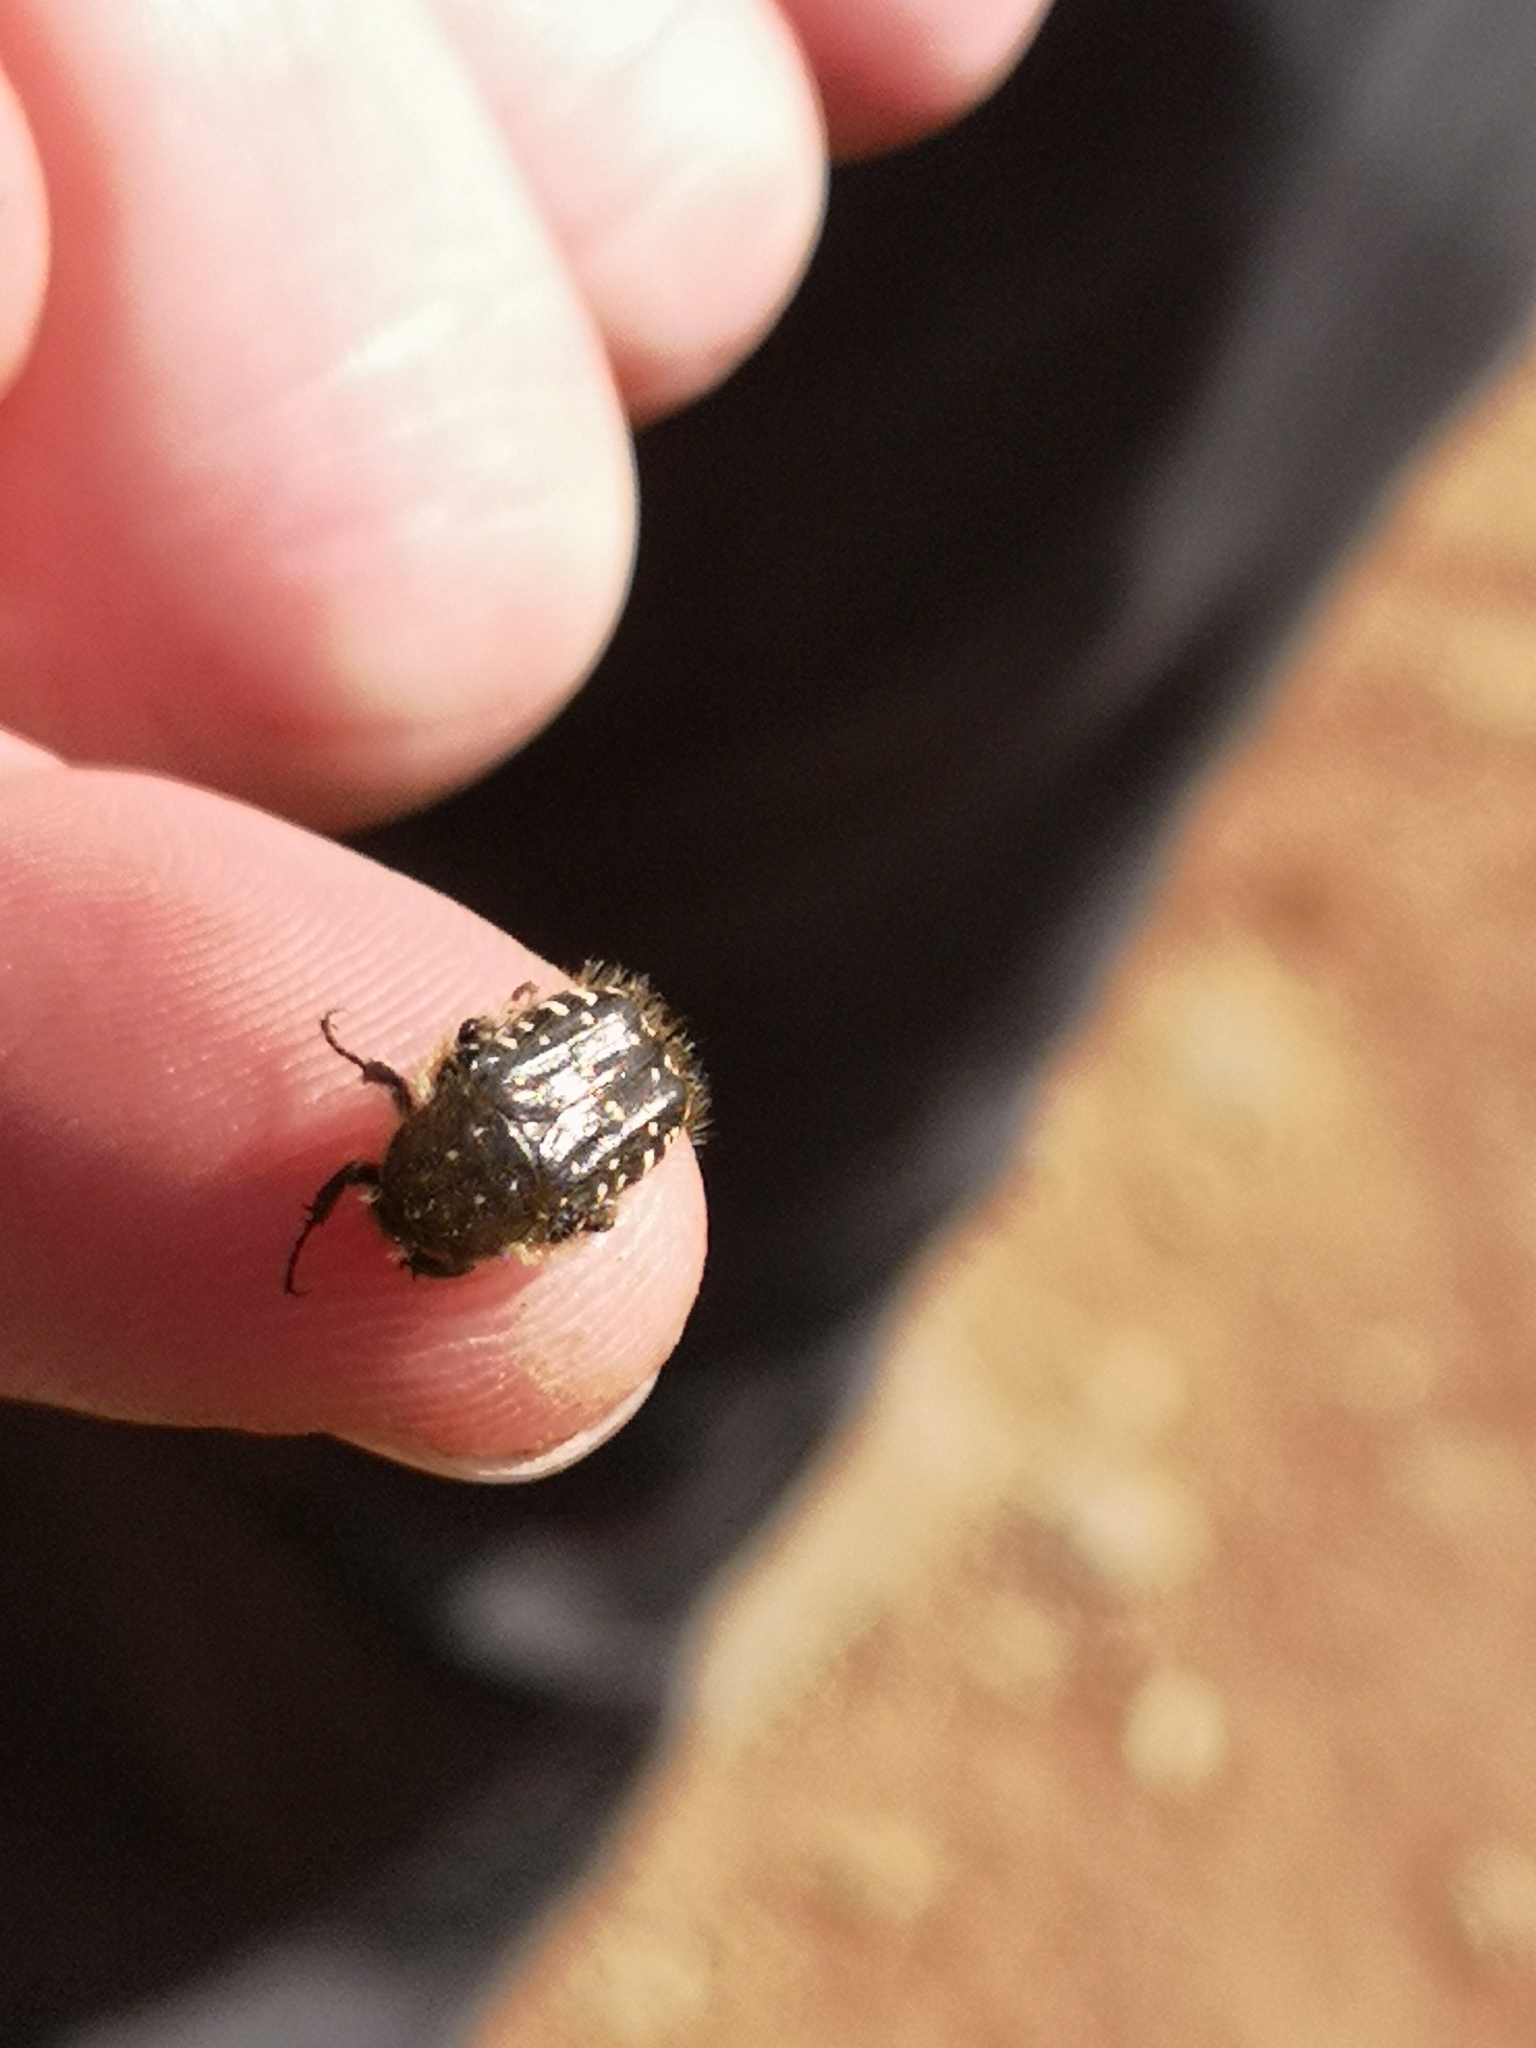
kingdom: Animalia
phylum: Arthropoda
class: Insecta
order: Coleoptera
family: Scarabaeidae
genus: Oxythyrea
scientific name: Oxythyrea funesta
